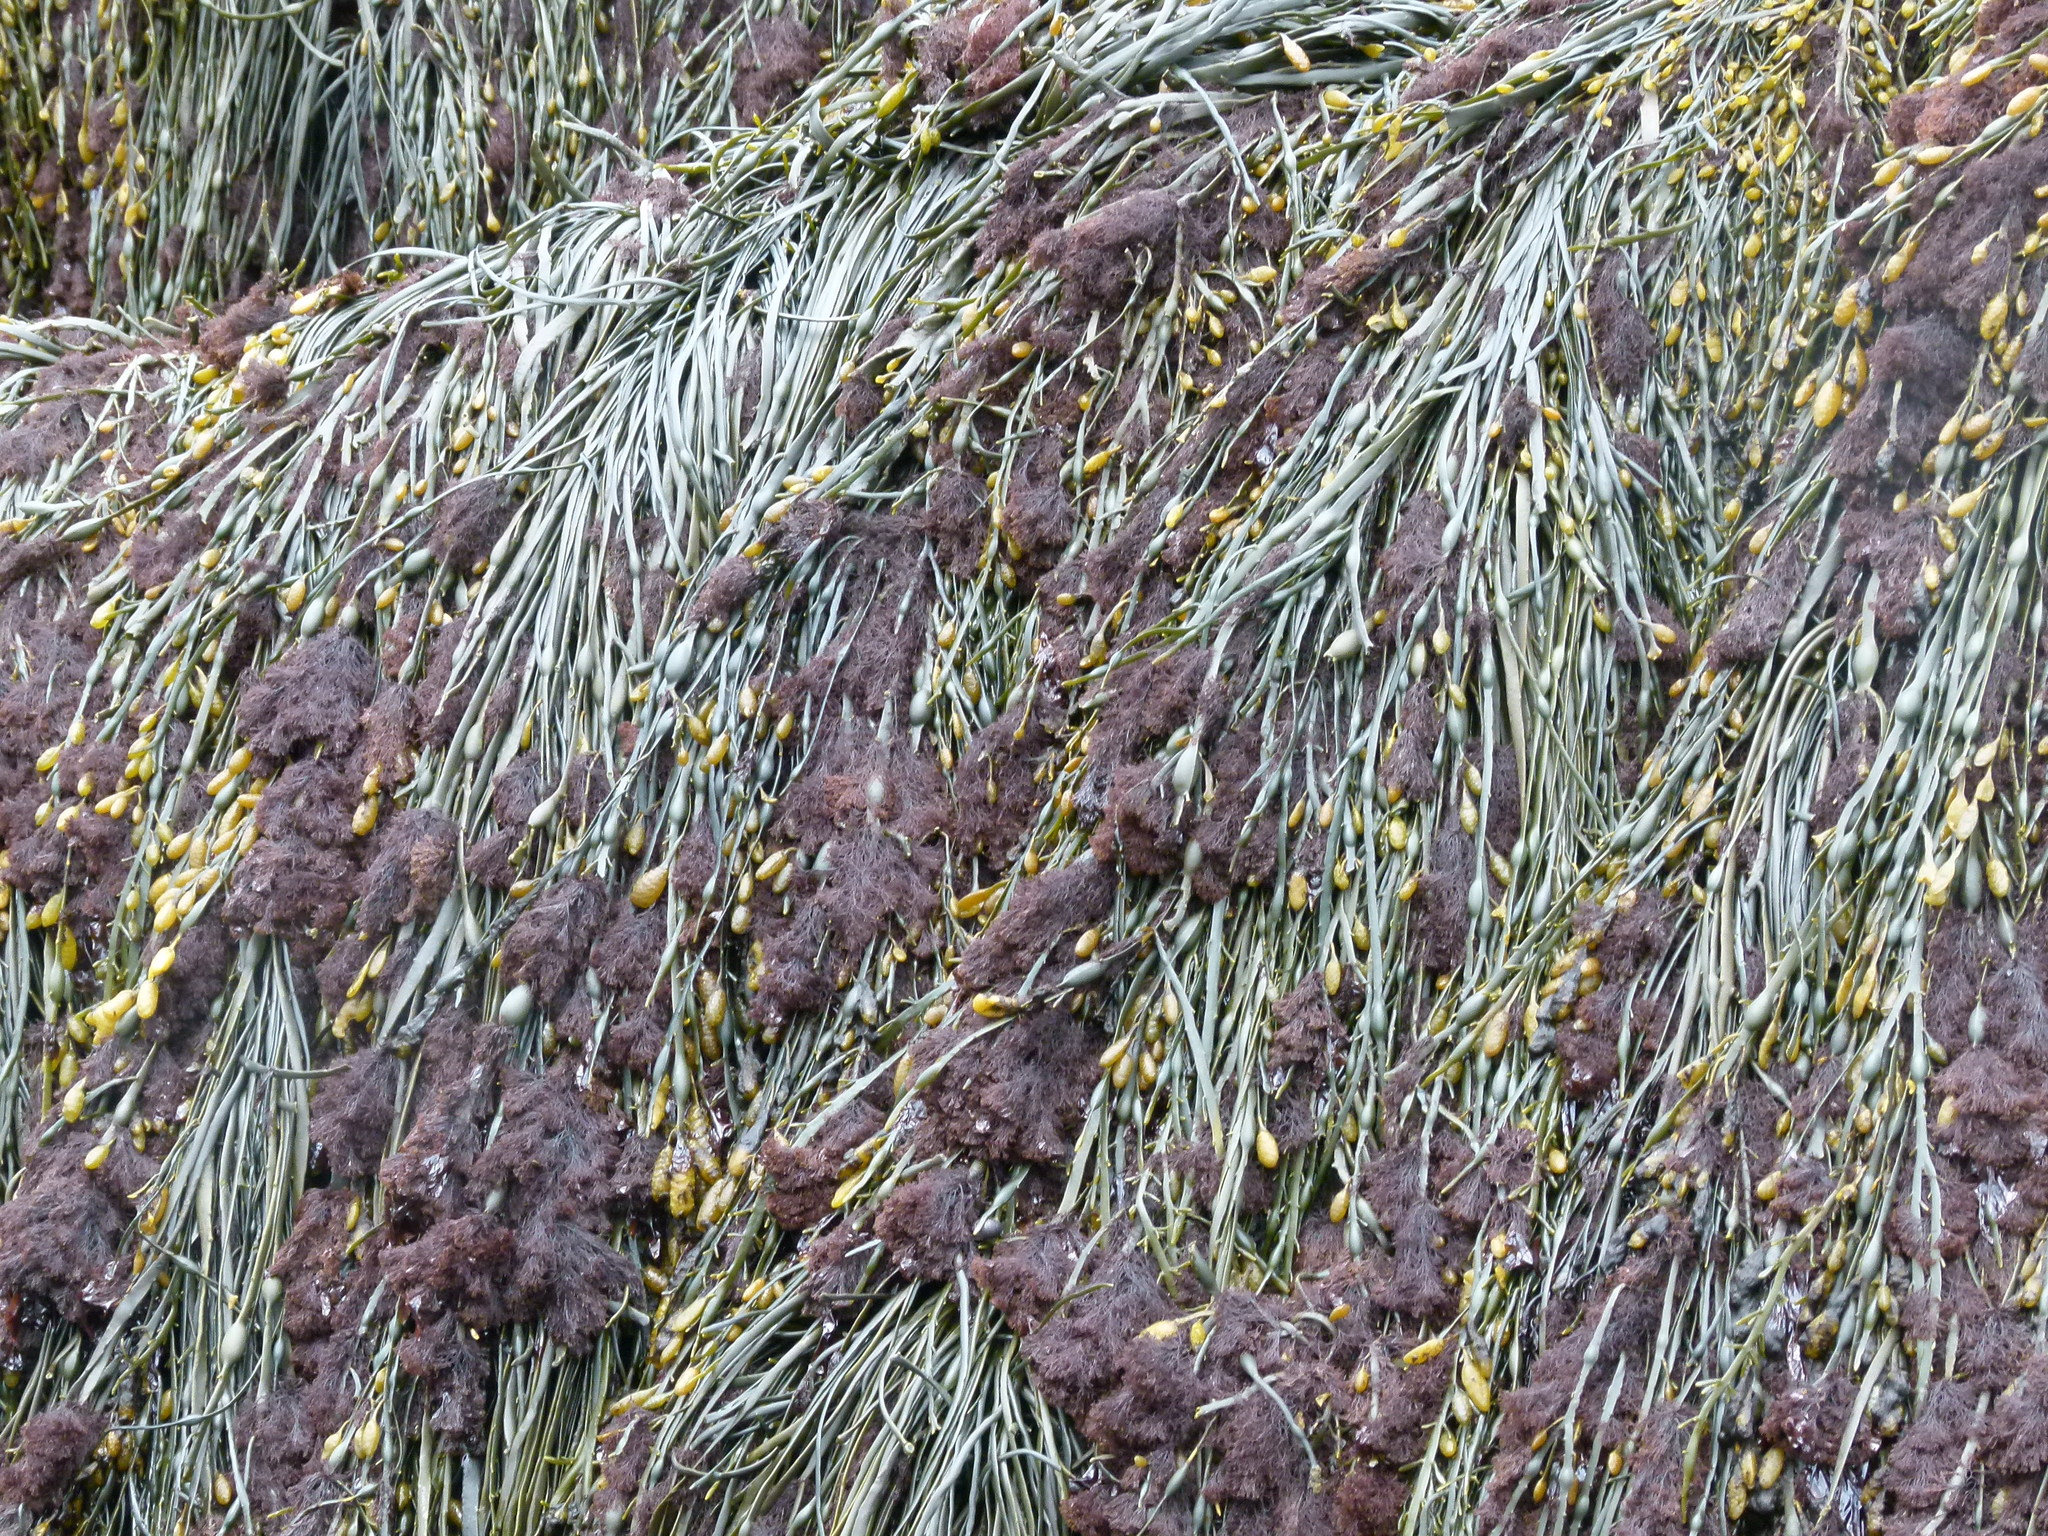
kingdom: Plantae
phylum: Rhodophyta
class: Florideophyceae
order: Ceramiales
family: Rhodomelaceae
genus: Vertebrata
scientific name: Vertebrata lanosa
